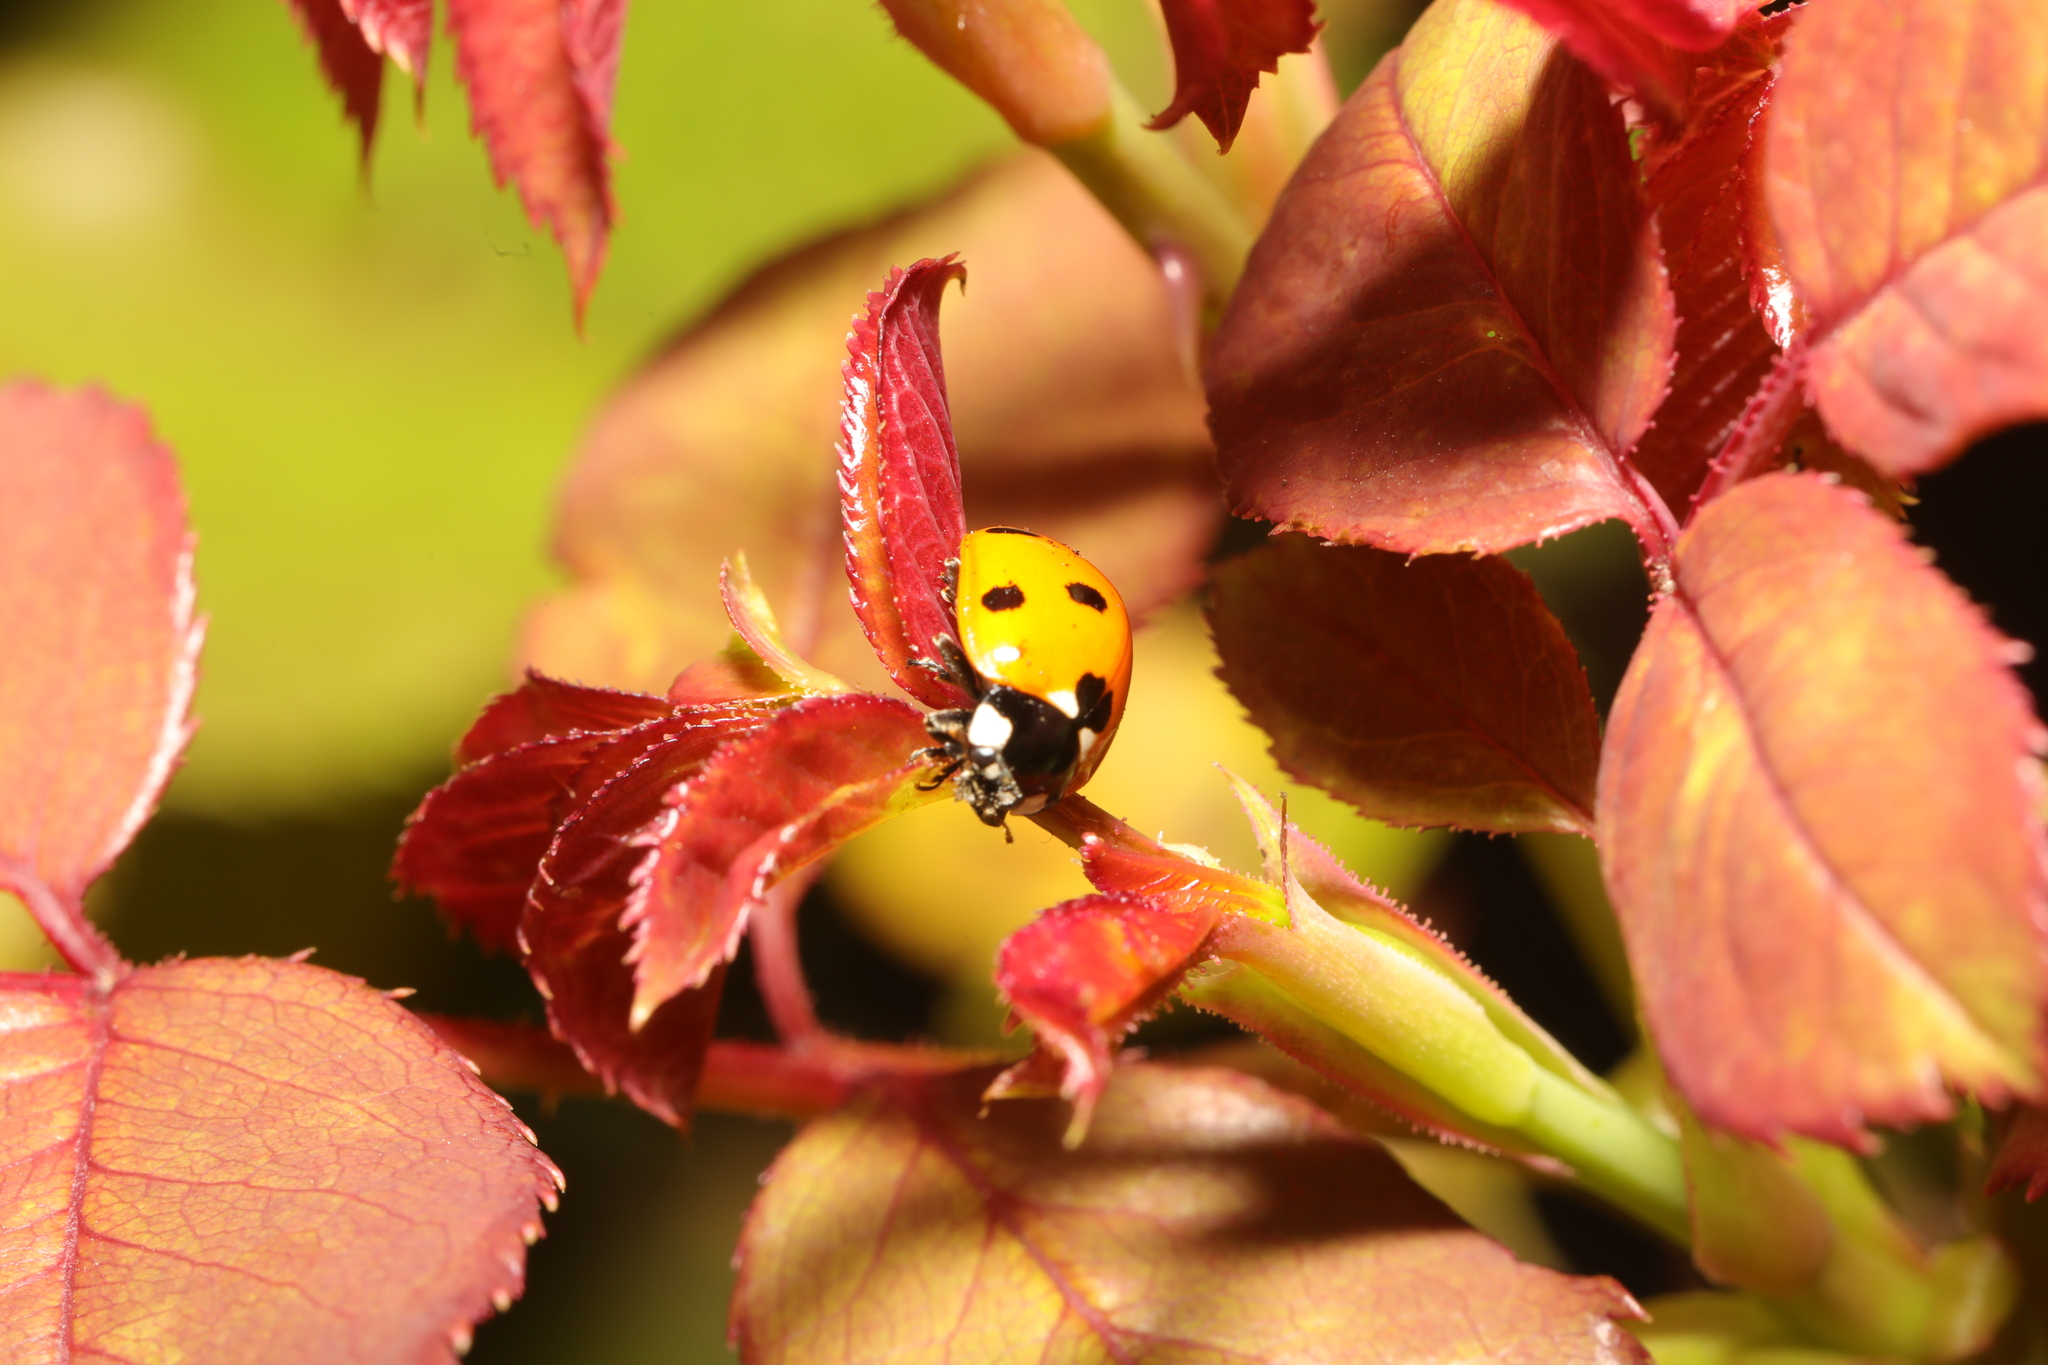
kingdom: Animalia
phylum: Arthropoda
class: Insecta
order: Coleoptera
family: Coccinellidae
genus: Coccinella
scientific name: Coccinella septempunctata
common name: Sevenspotted lady beetle
